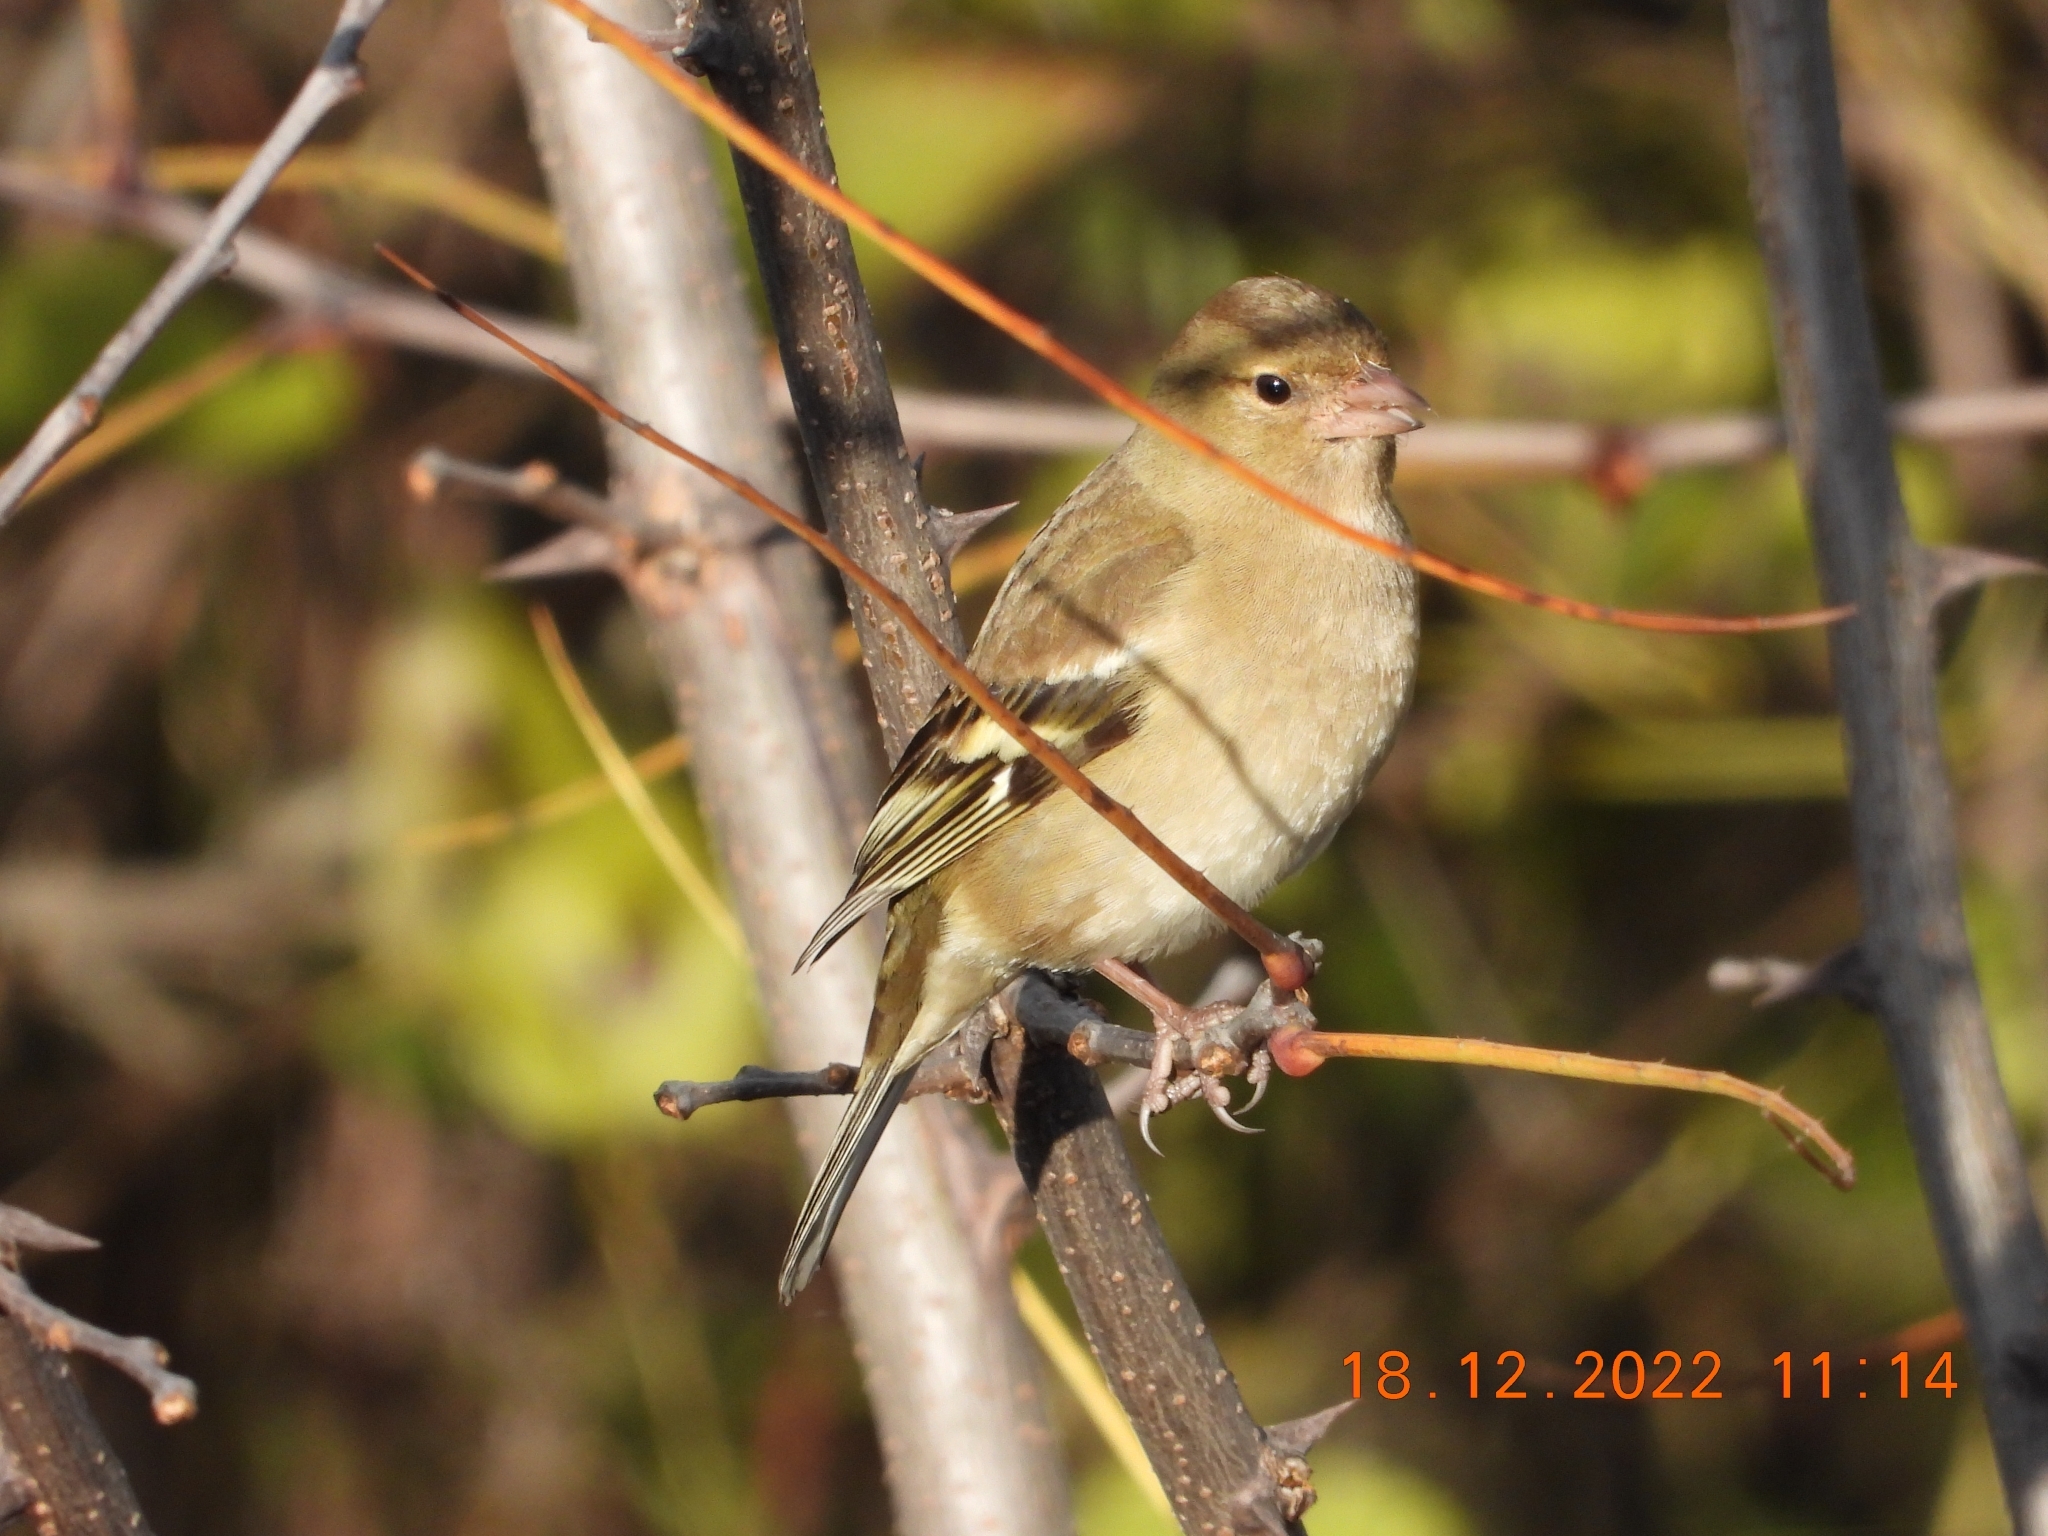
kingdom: Animalia
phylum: Chordata
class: Aves
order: Passeriformes
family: Fringillidae
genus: Fringilla
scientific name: Fringilla coelebs
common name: Common chaffinch
